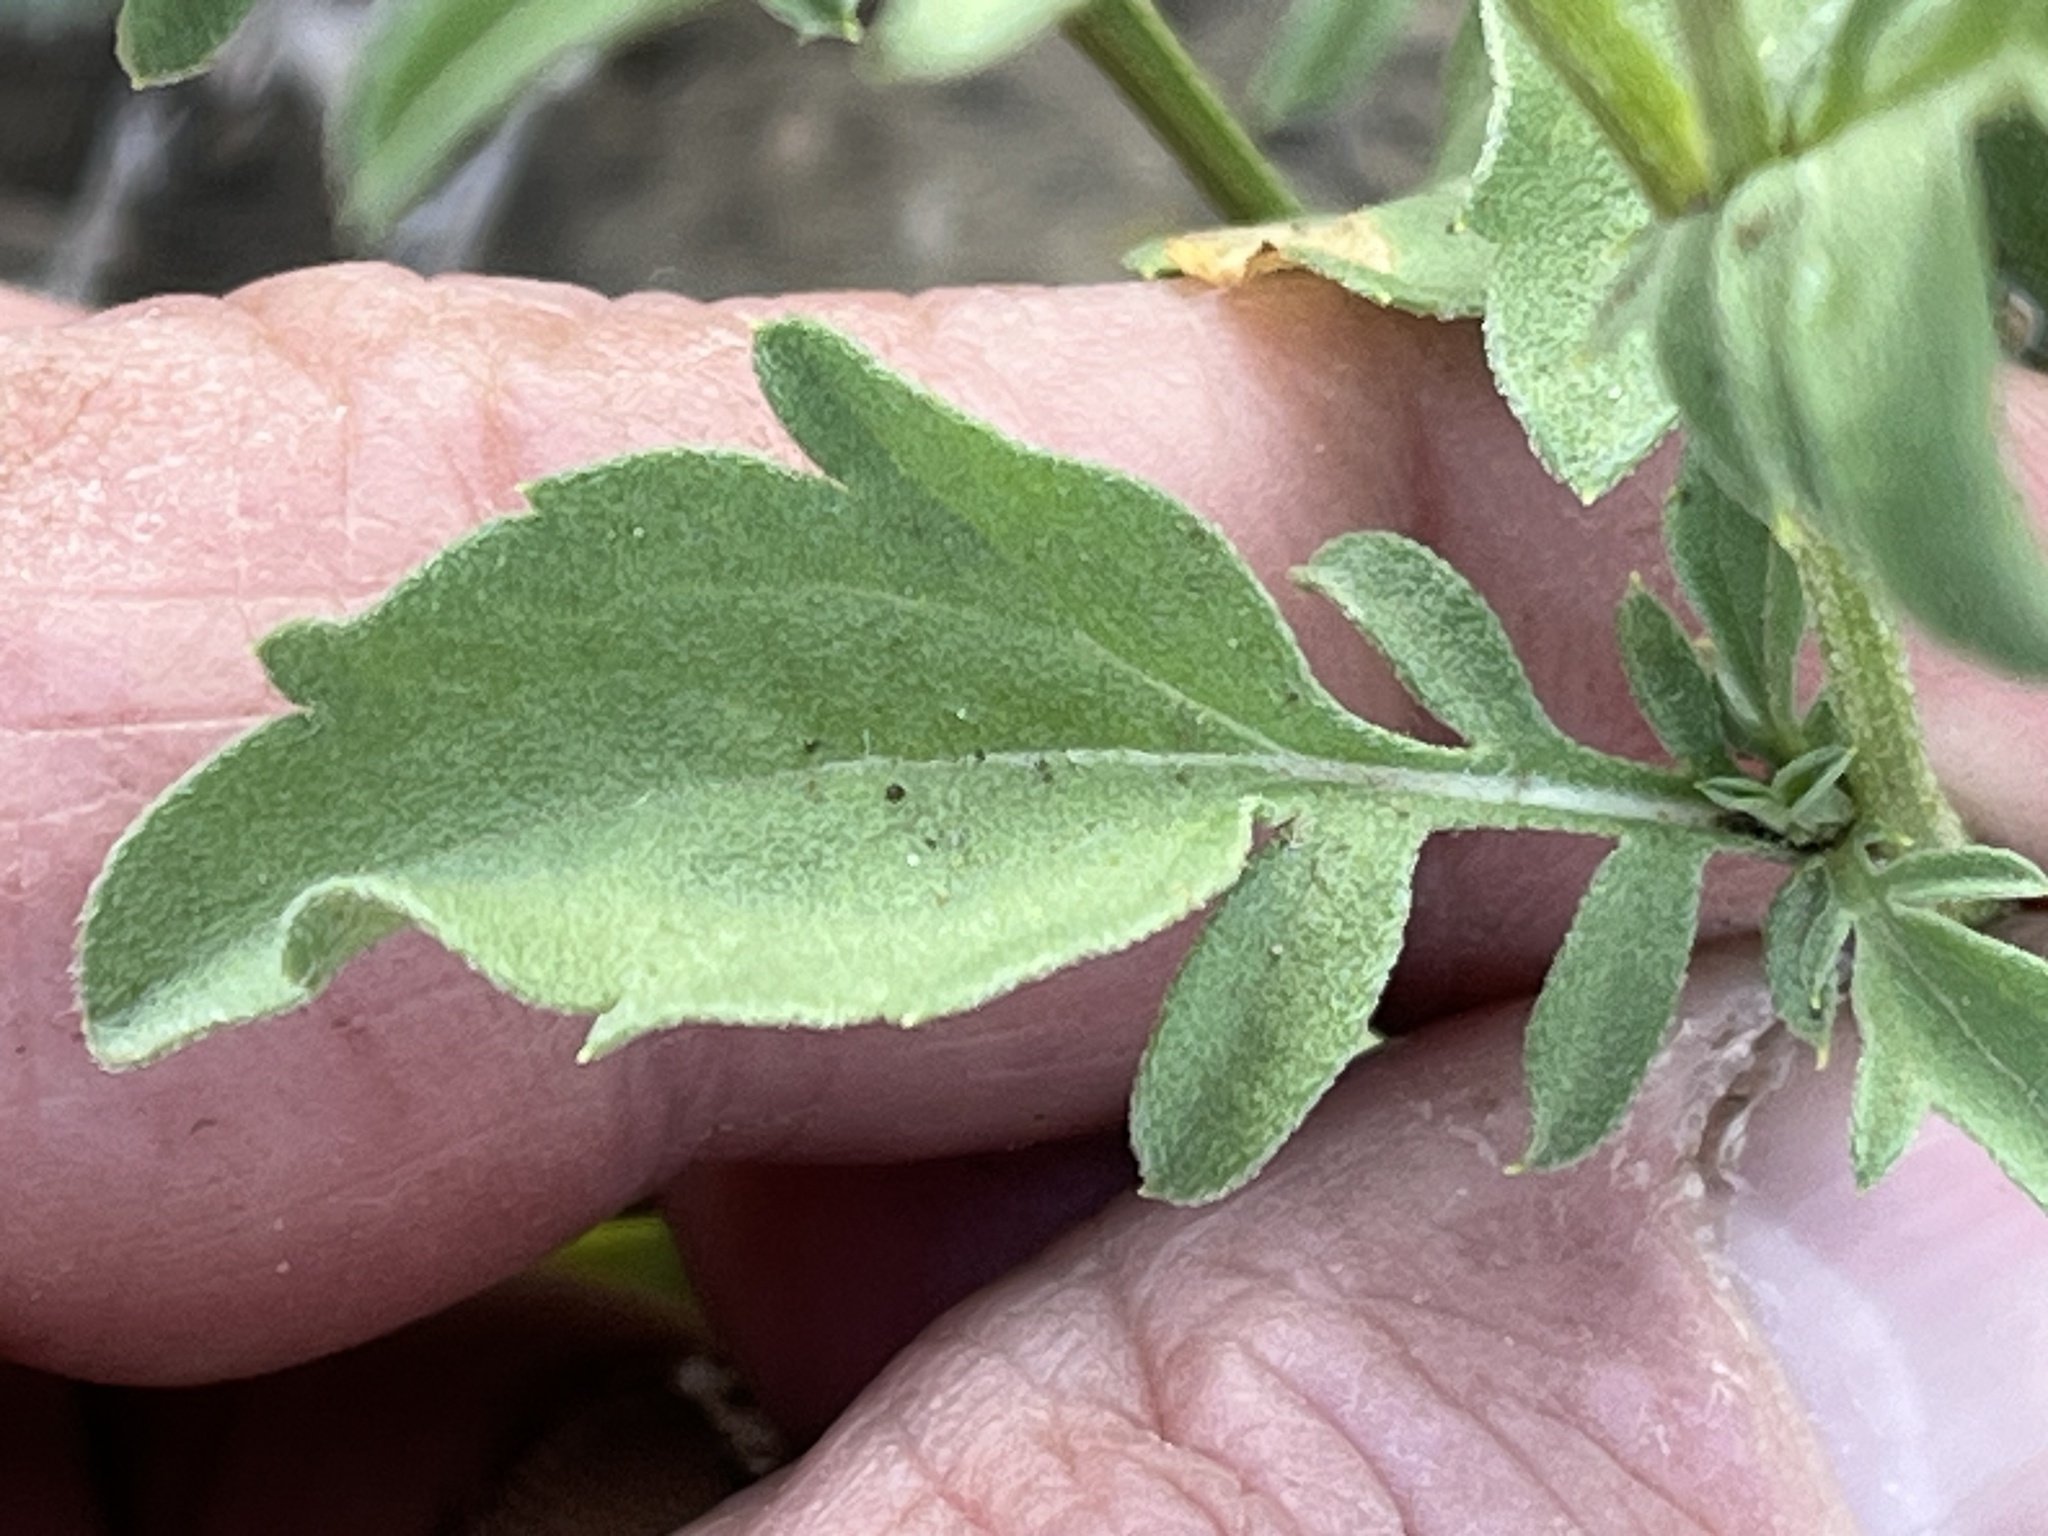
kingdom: Plantae
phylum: Tracheophyta
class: Magnoliopsida
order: Asterales
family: Asteraceae
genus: Ratibida
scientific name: Ratibida columnifera
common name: Prairie coneflower
